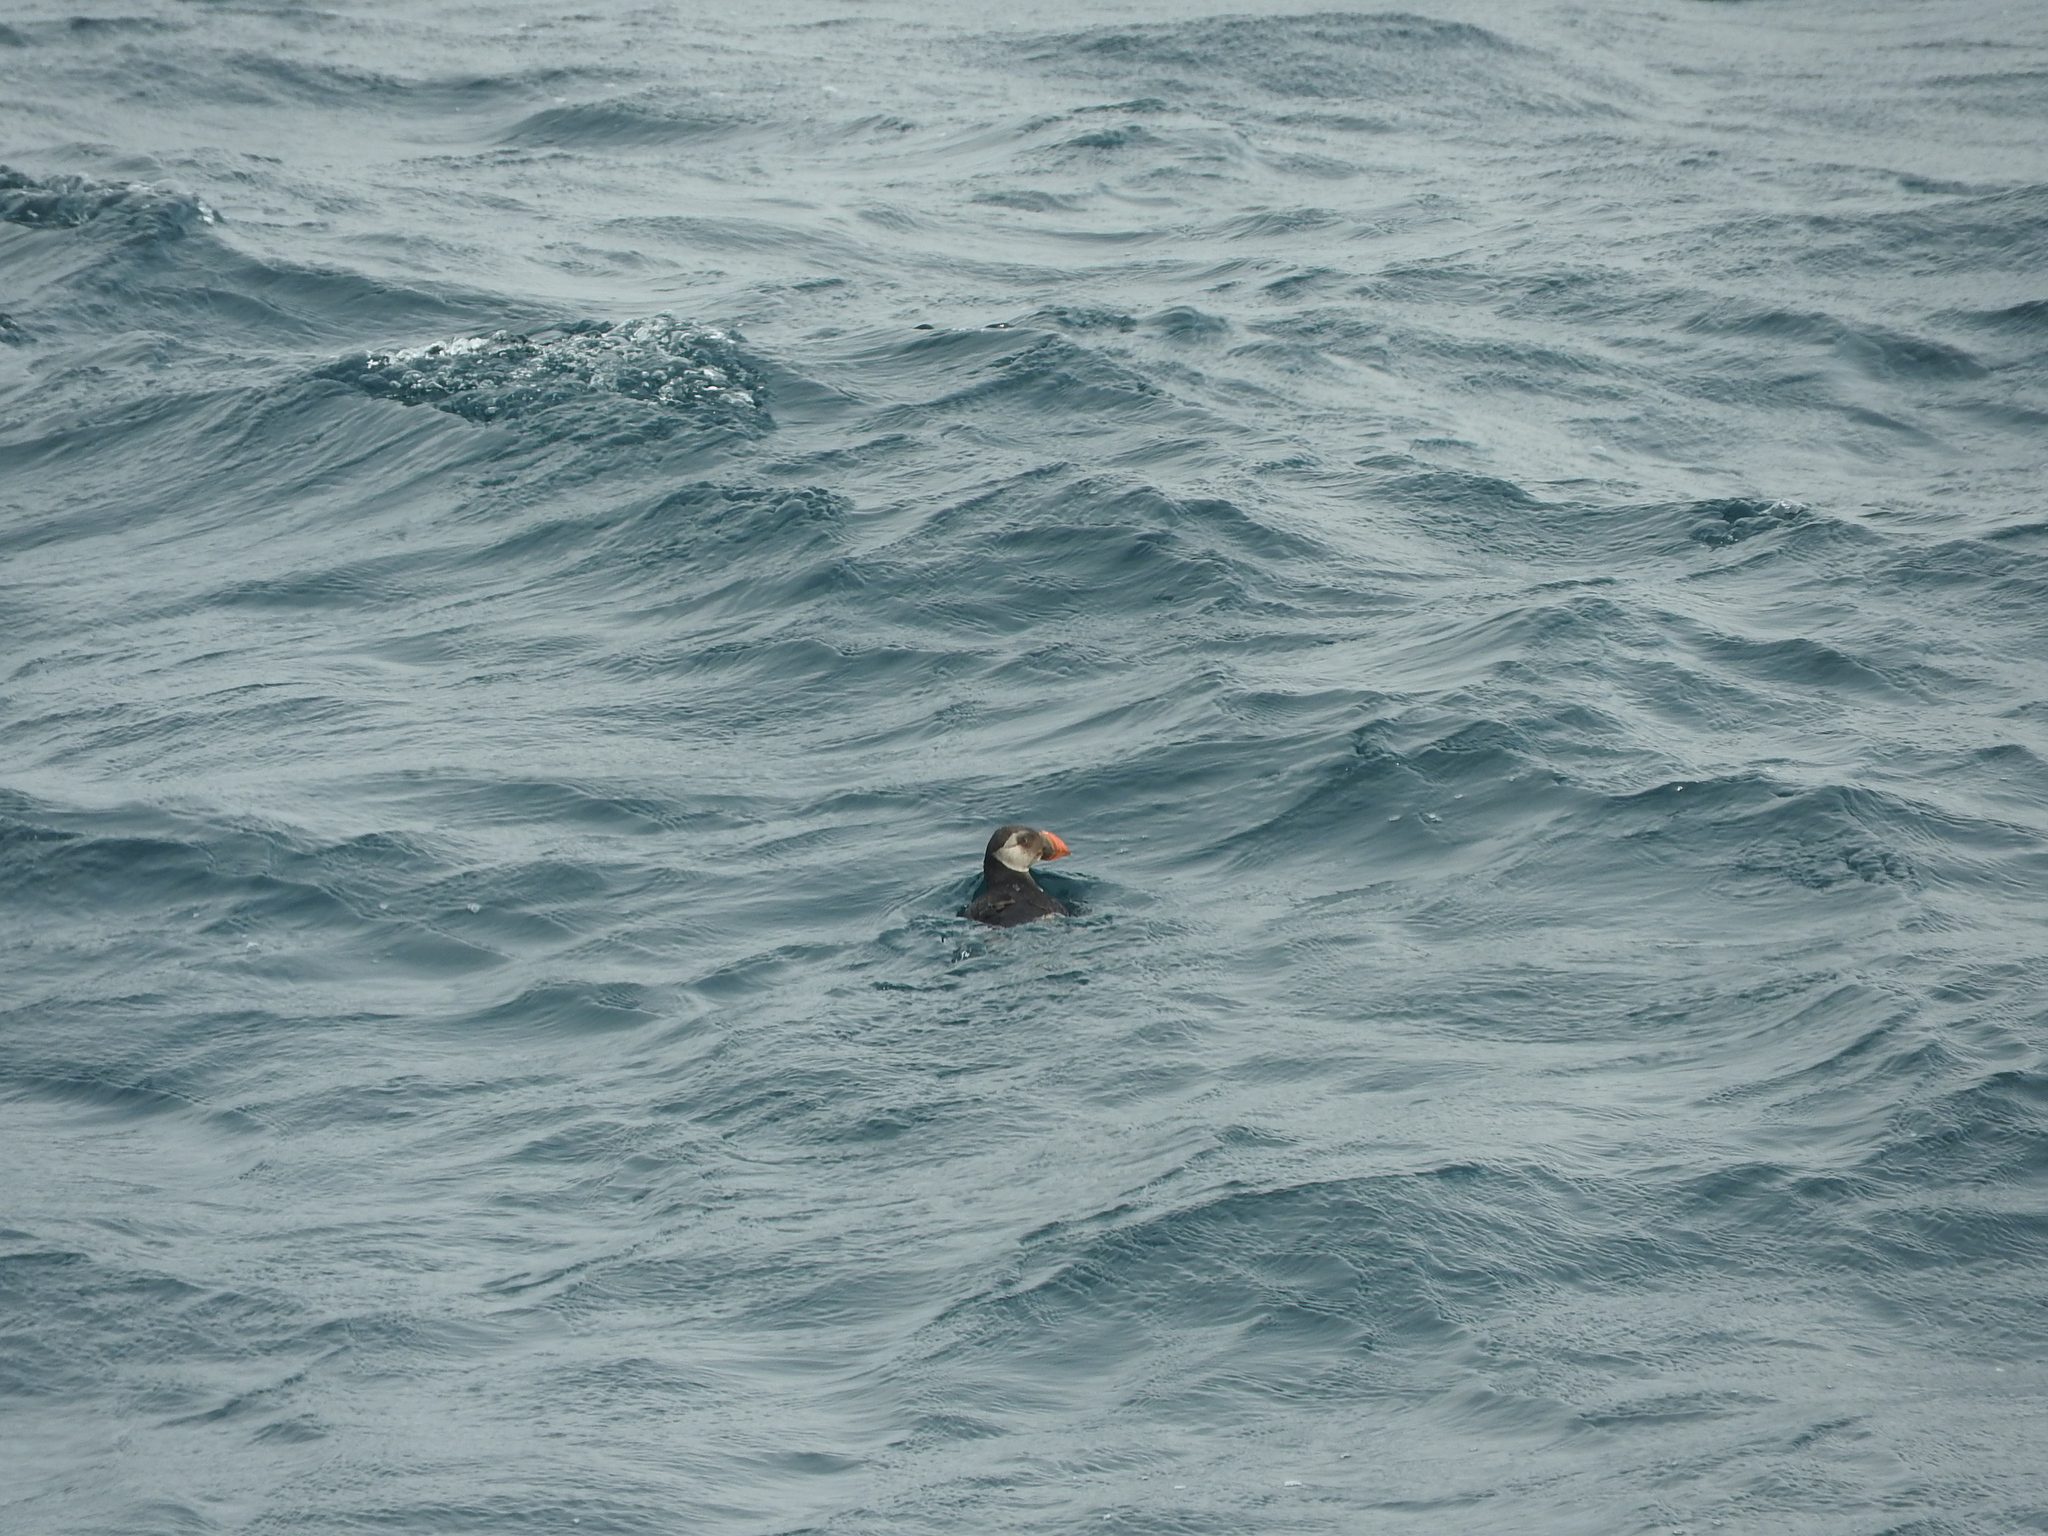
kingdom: Animalia
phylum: Chordata
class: Aves
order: Charadriiformes
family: Alcidae
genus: Fratercula
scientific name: Fratercula arctica
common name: Atlantic puffin
